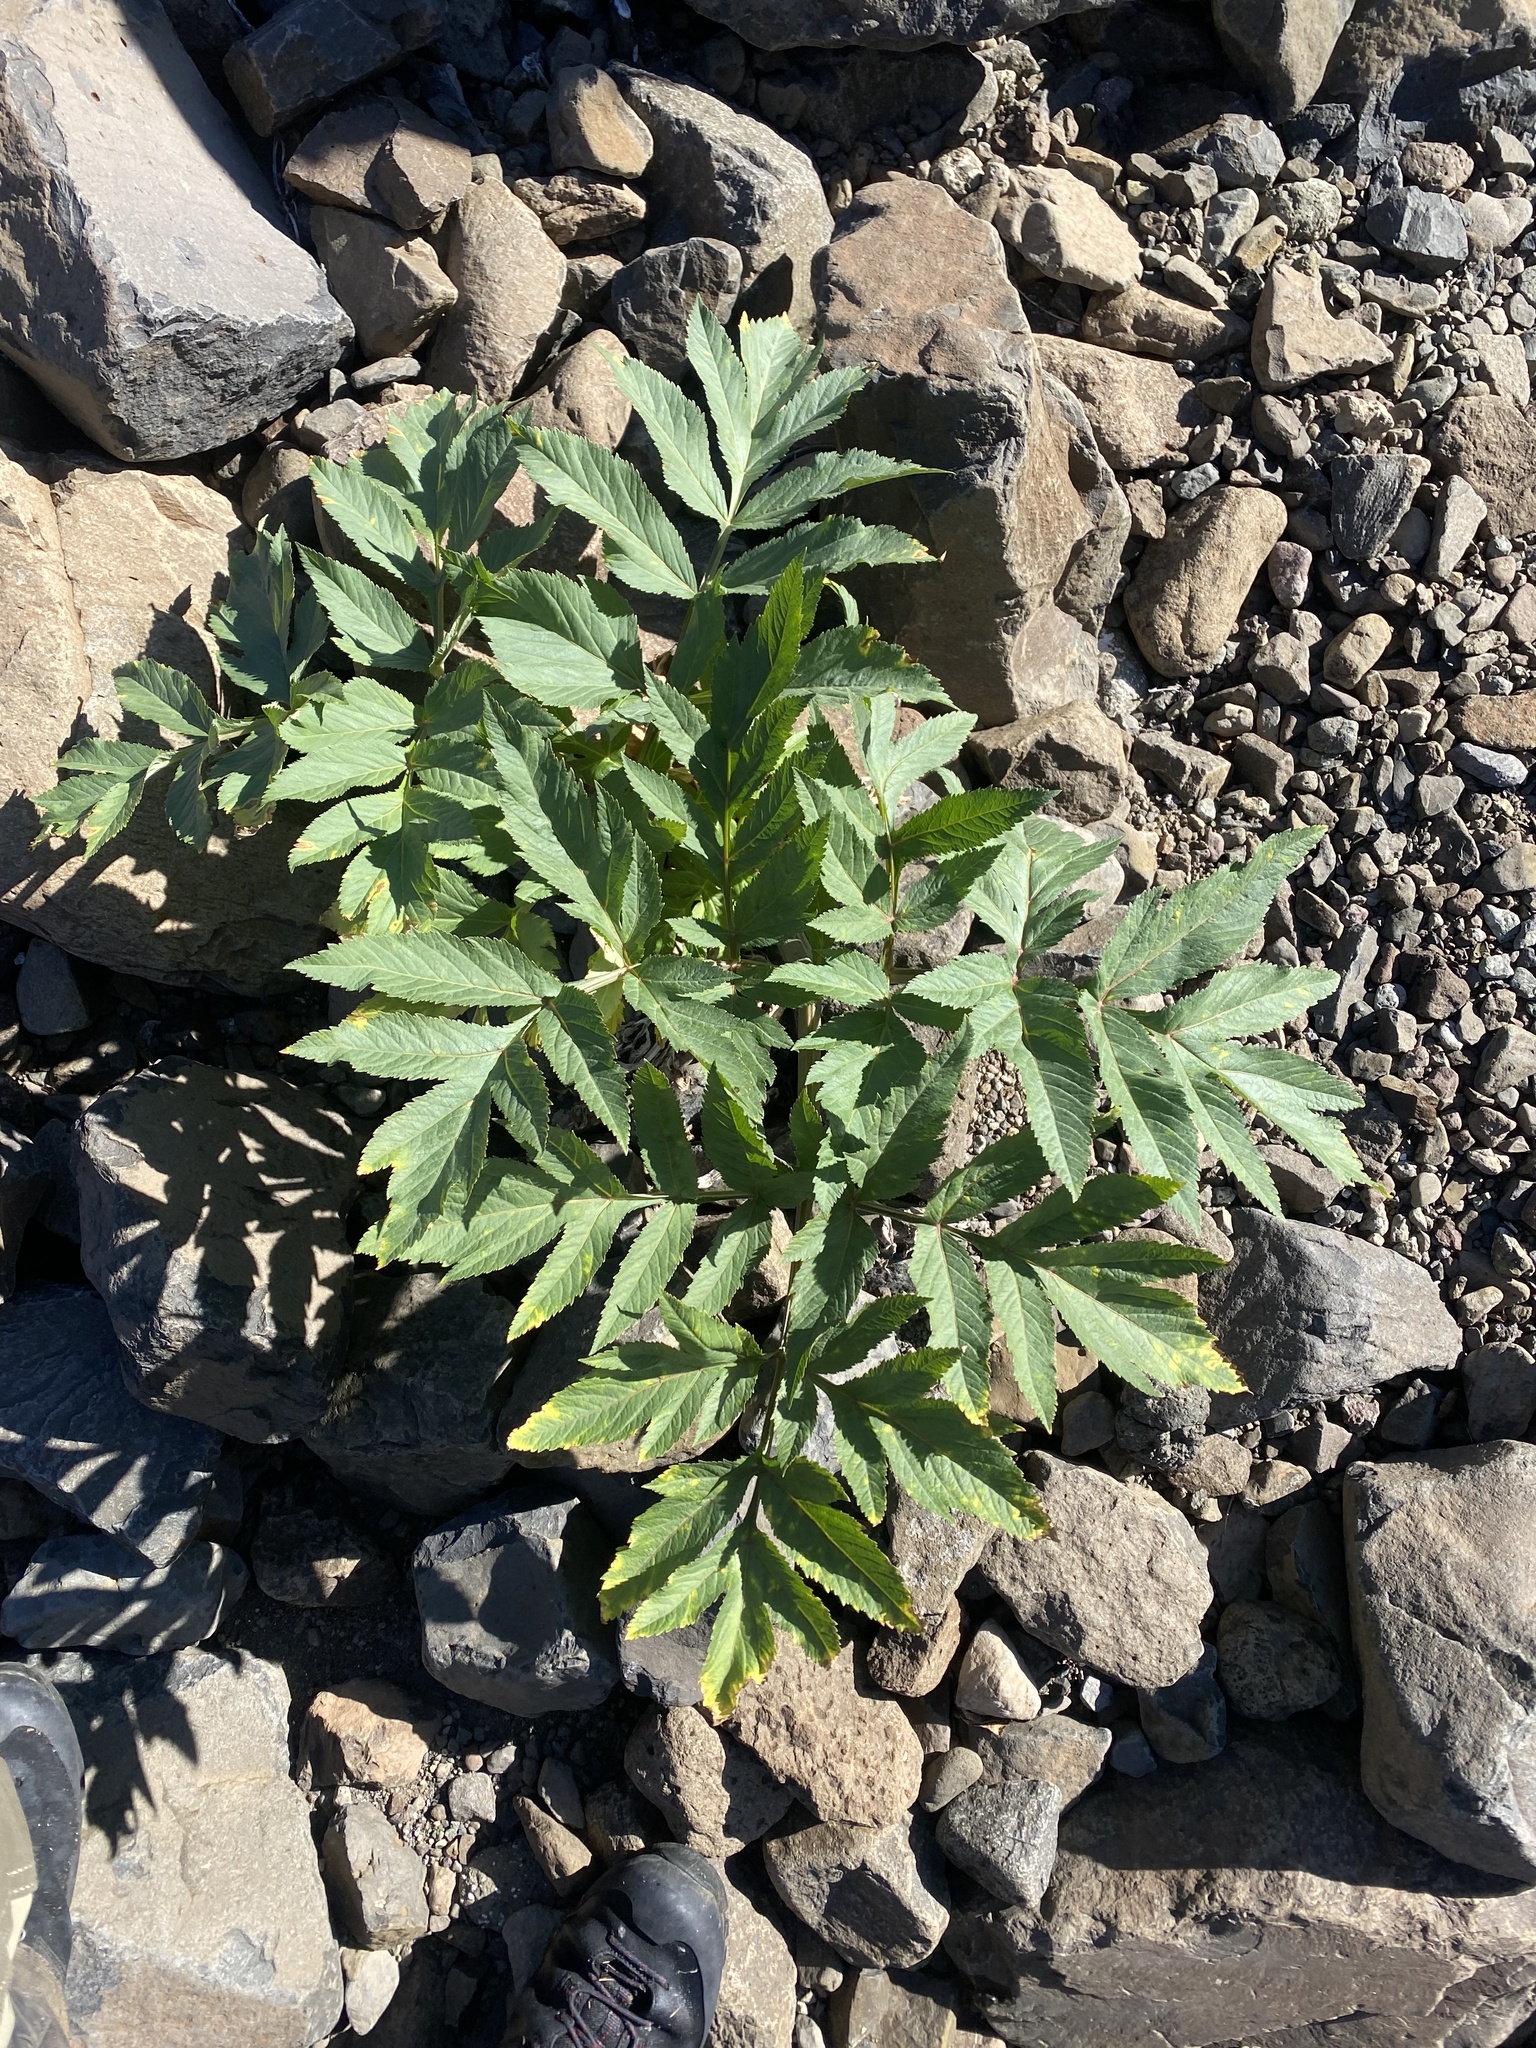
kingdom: Plantae
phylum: Tracheophyta
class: Magnoliopsida
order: Apiales
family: Apiaceae
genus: Angelica
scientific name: Angelica decurrens
